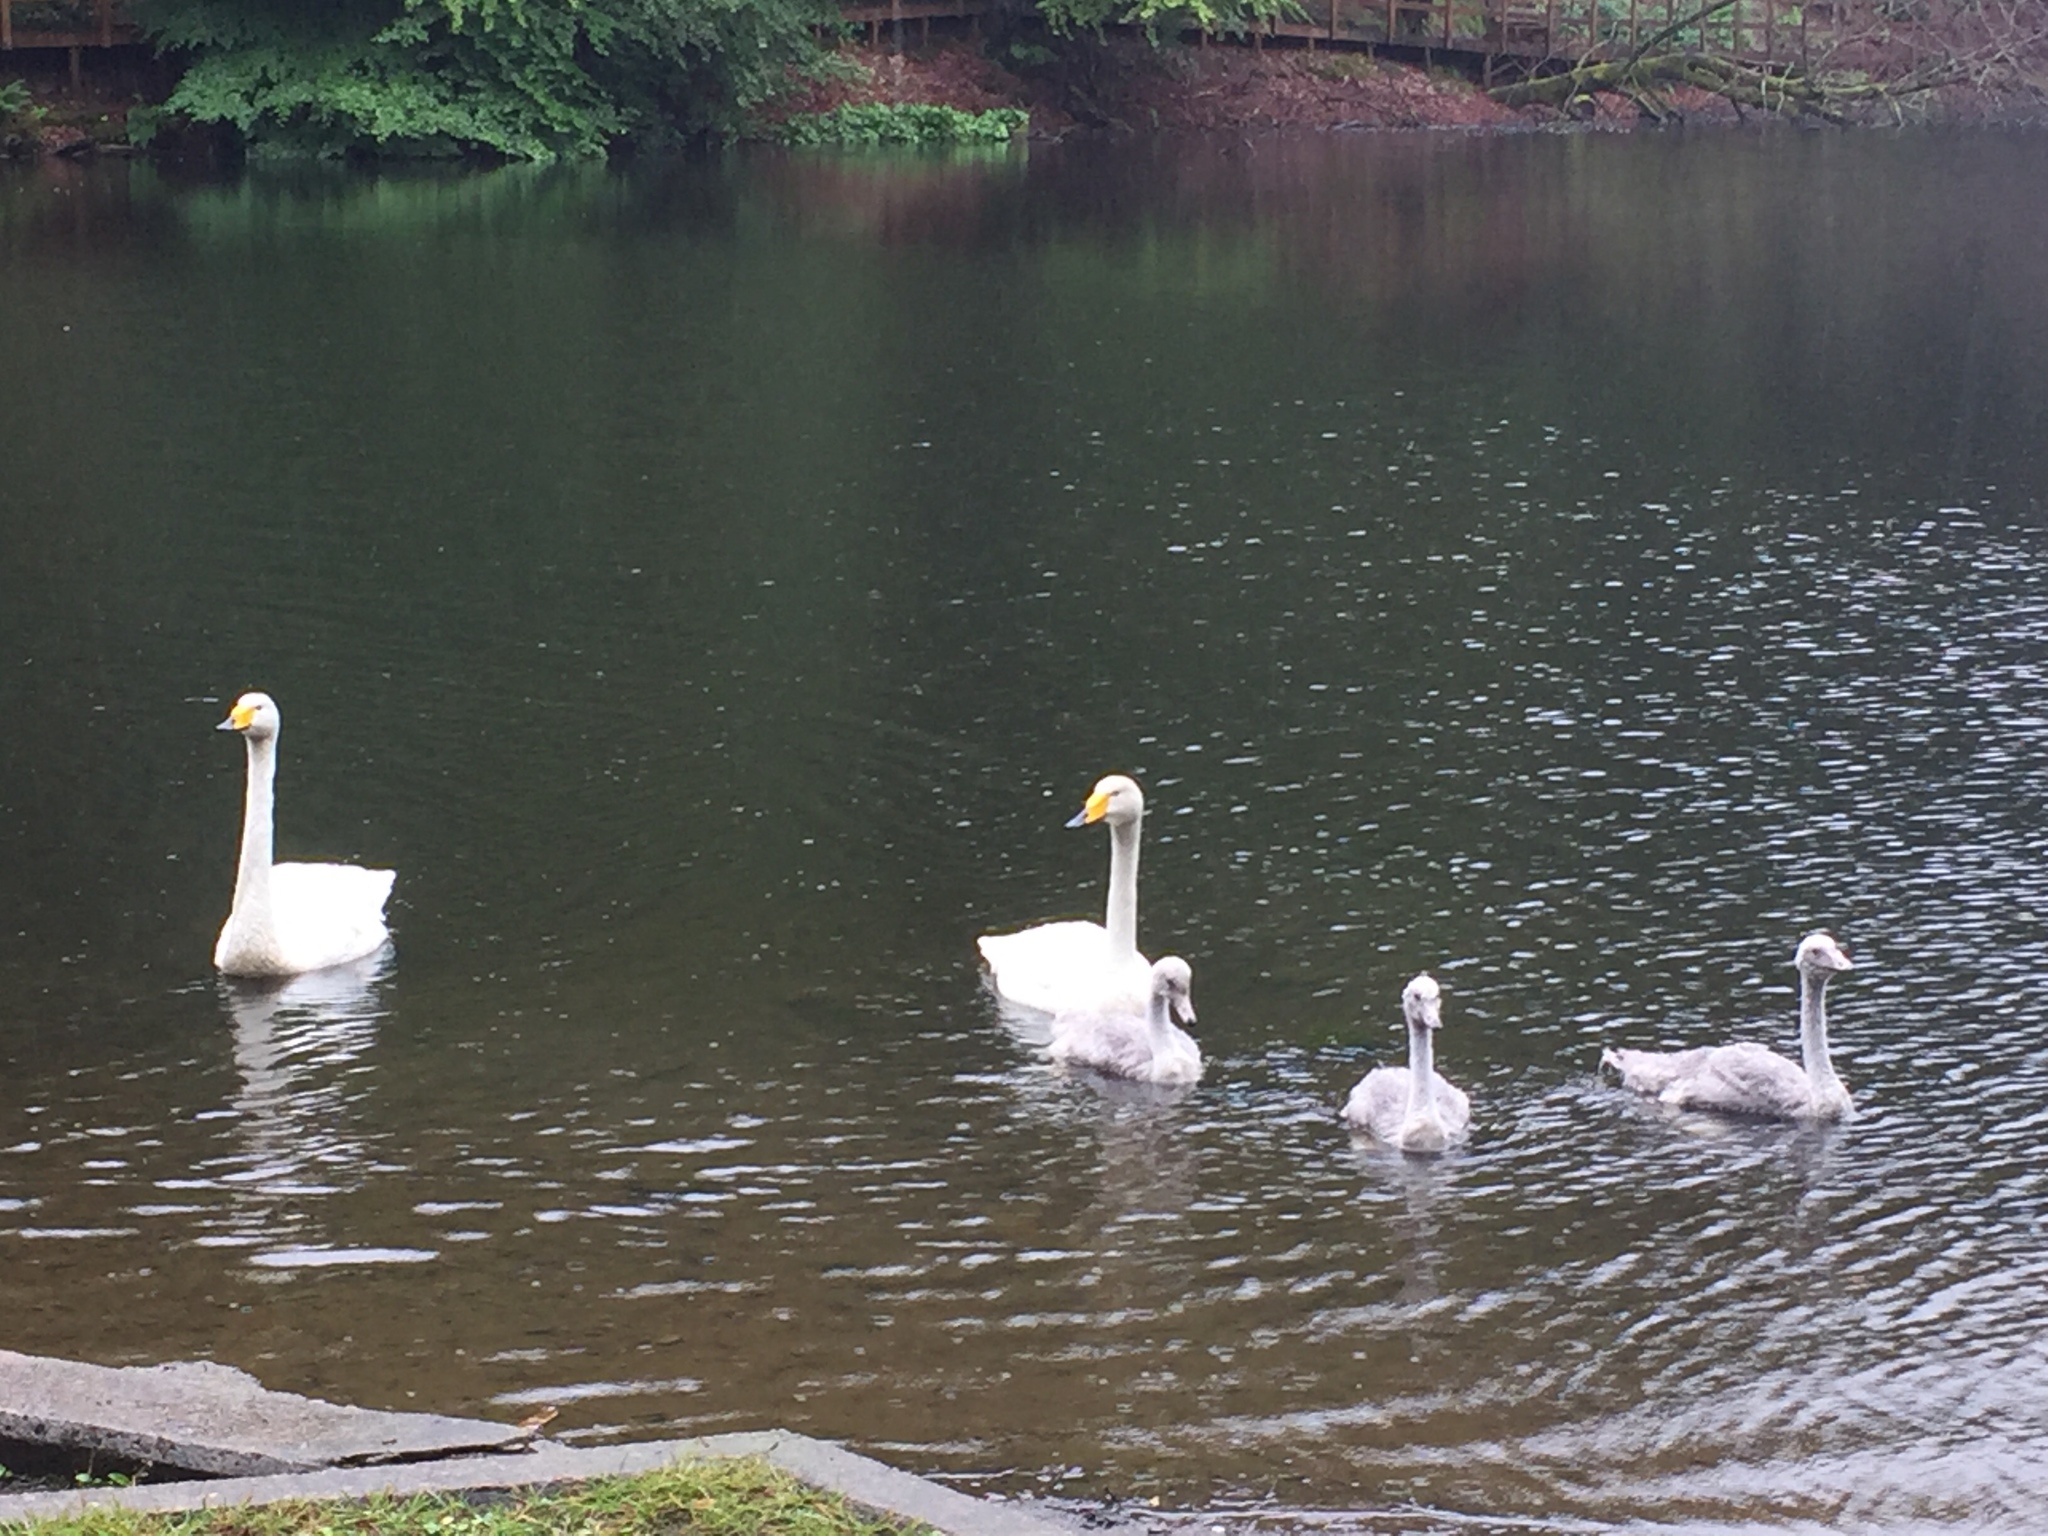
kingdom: Animalia
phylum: Chordata
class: Aves
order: Anseriformes
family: Anatidae
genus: Cygnus
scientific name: Cygnus cygnus
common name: Whooper swan
